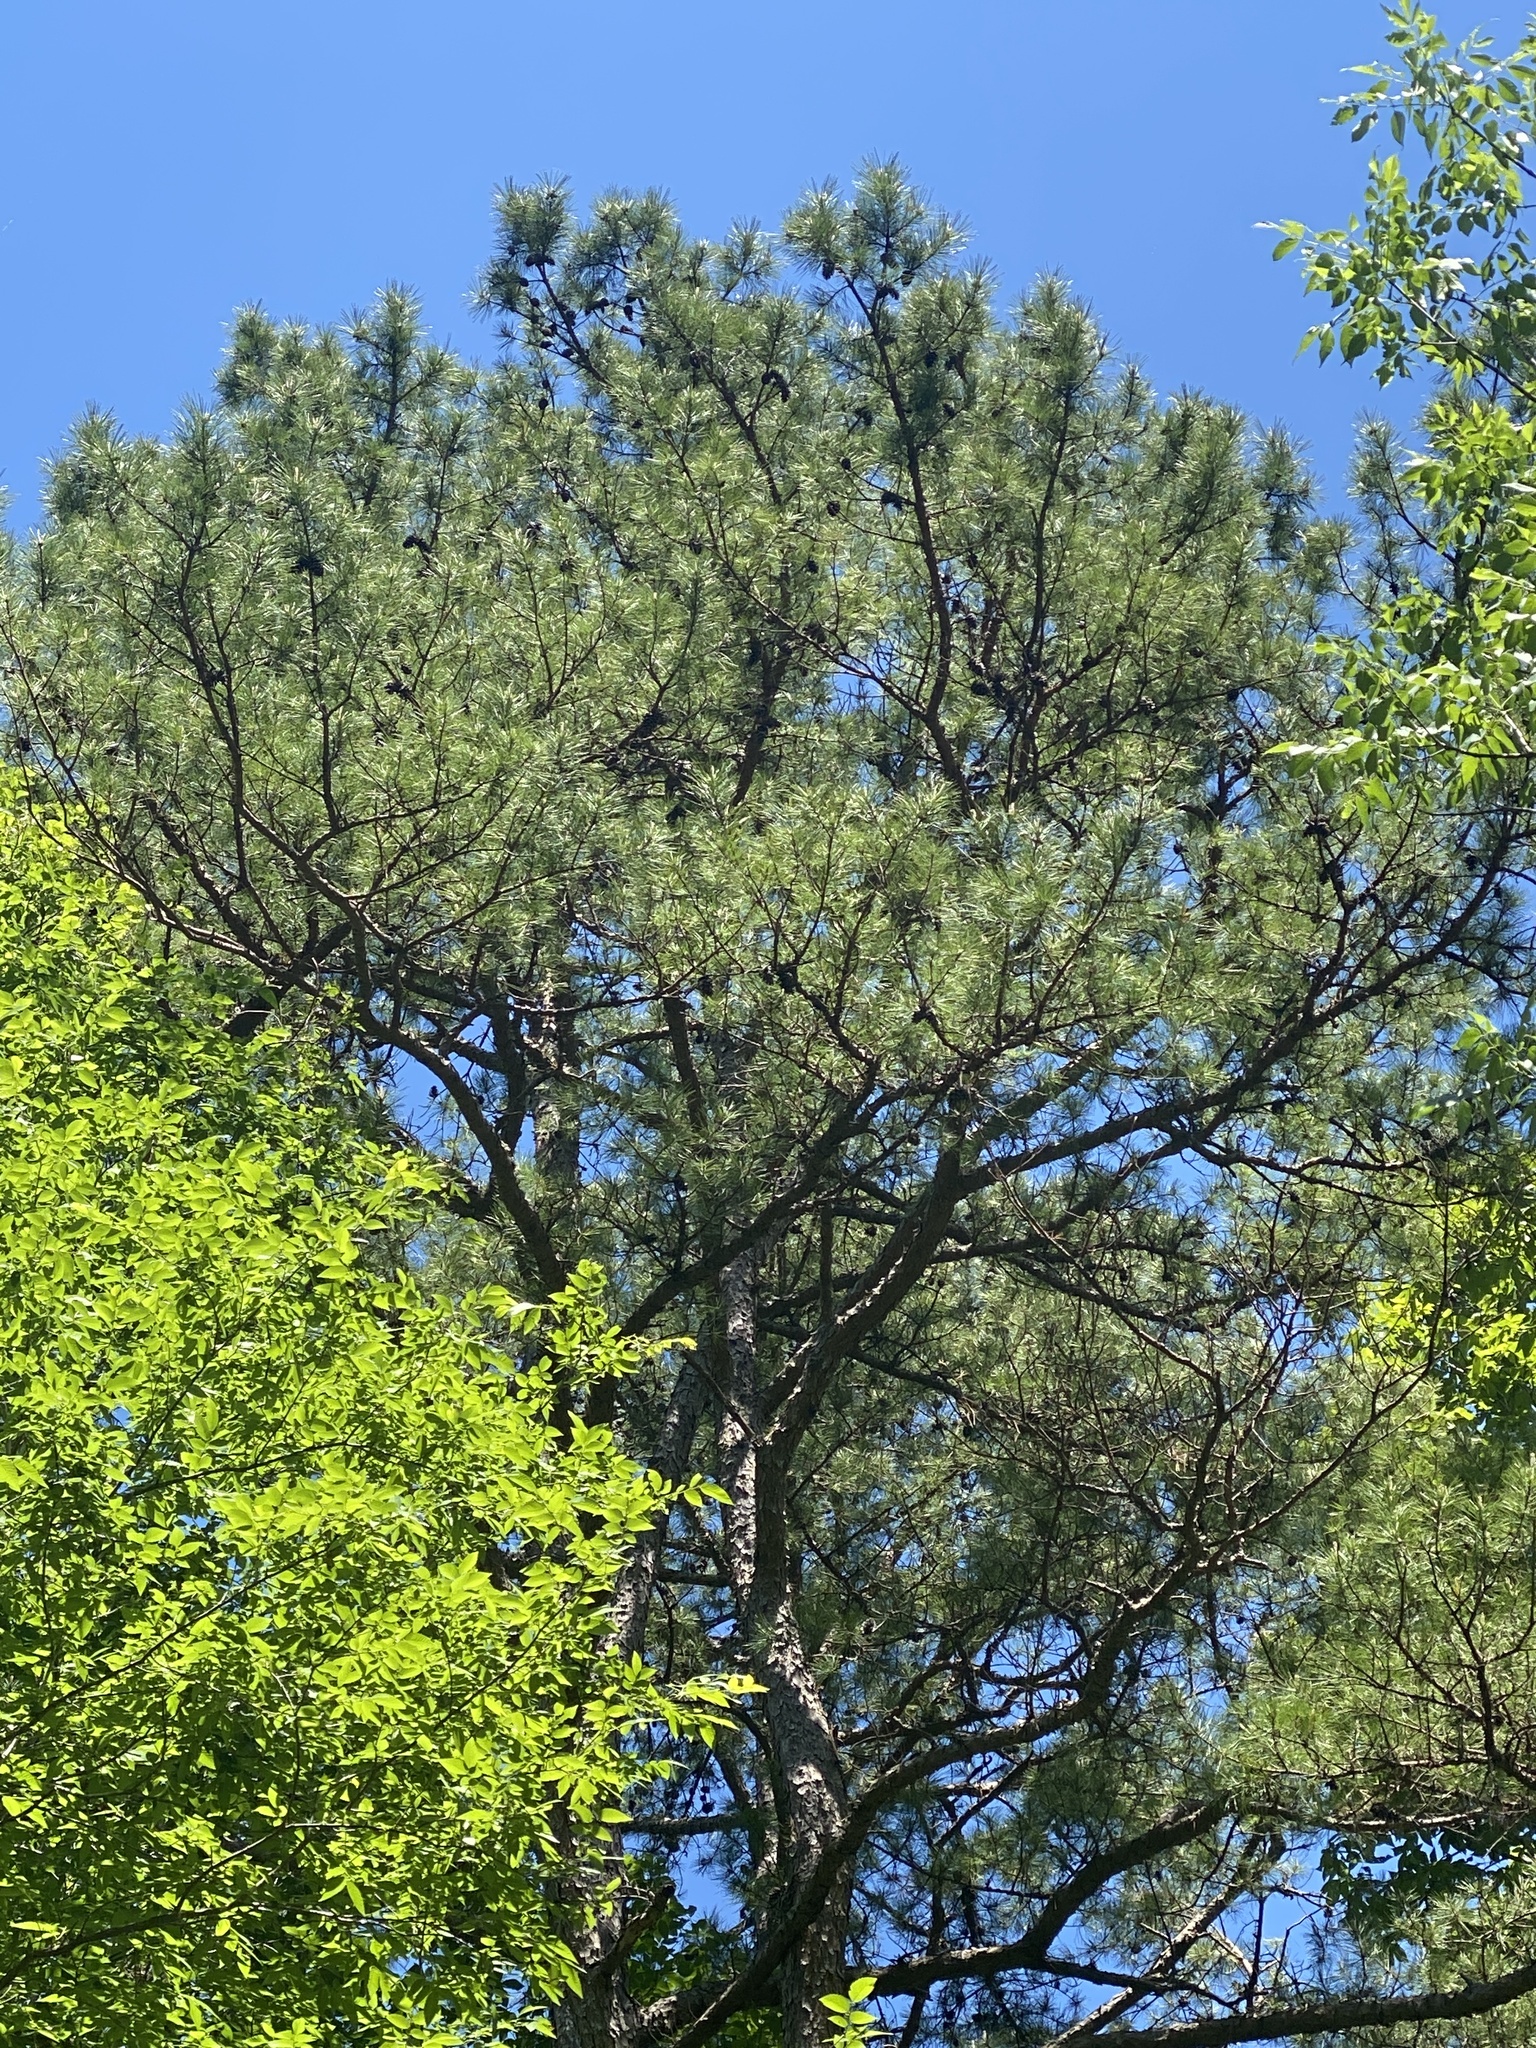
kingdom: Plantae
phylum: Tracheophyta
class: Pinopsida
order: Pinales
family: Pinaceae
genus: Pinus
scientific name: Pinus echinata
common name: Shortleaf pine
